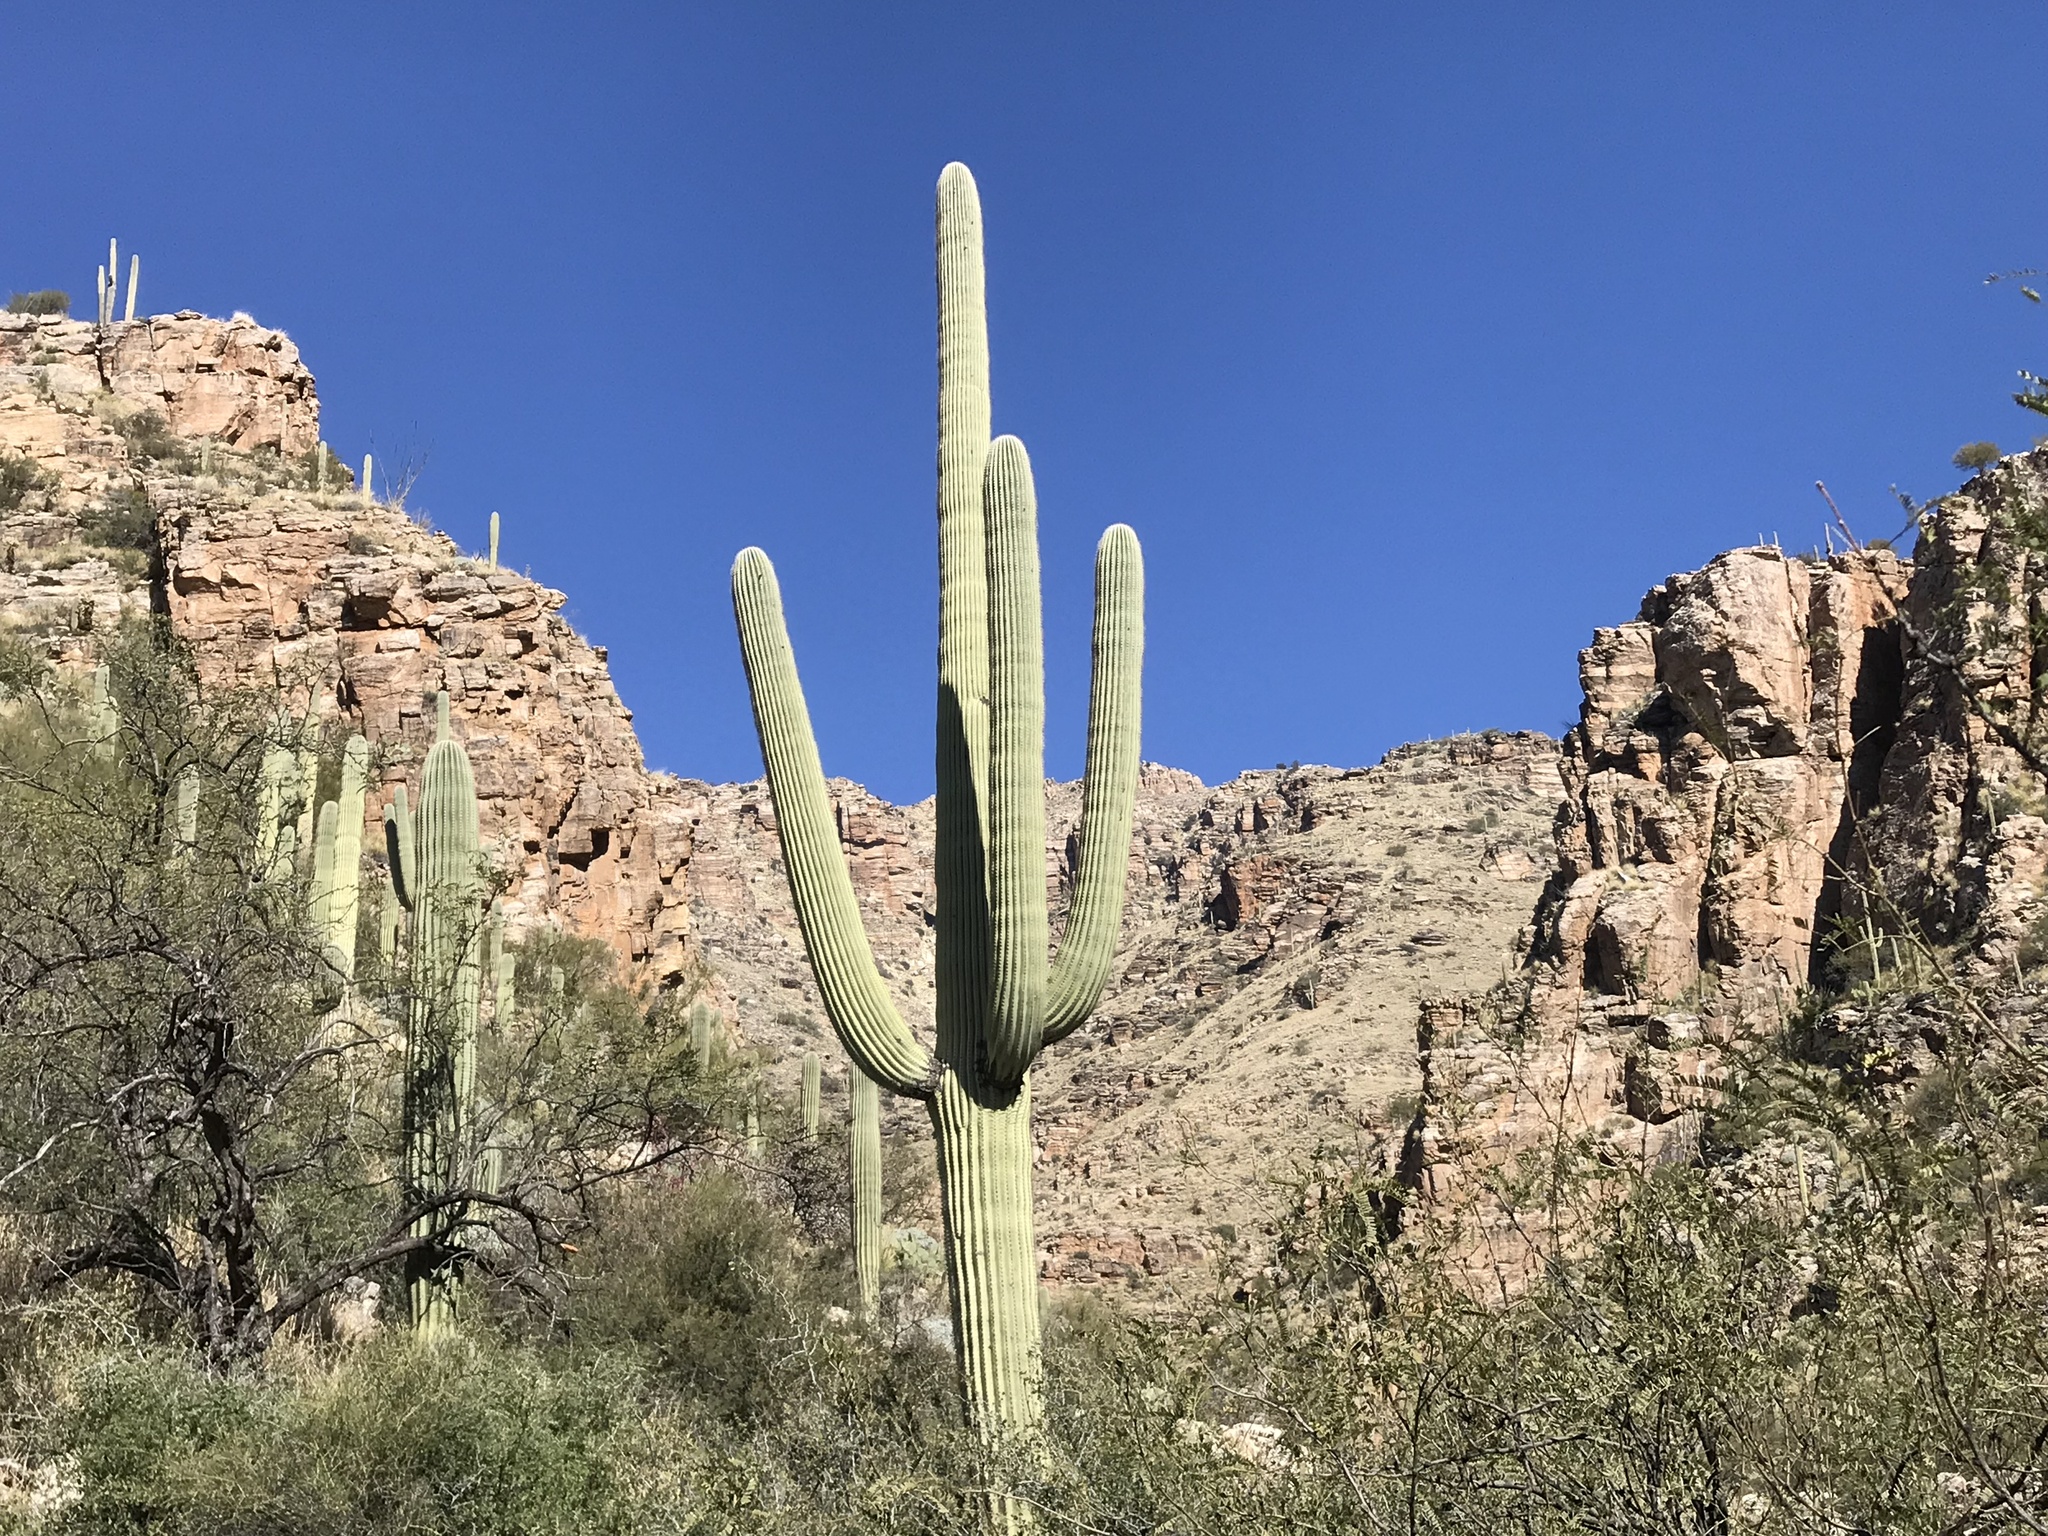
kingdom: Plantae
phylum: Tracheophyta
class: Magnoliopsida
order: Caryophyllales
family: Cactaceae
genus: Carnegiea
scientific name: Carnegiea gigantea
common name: Saguaro
